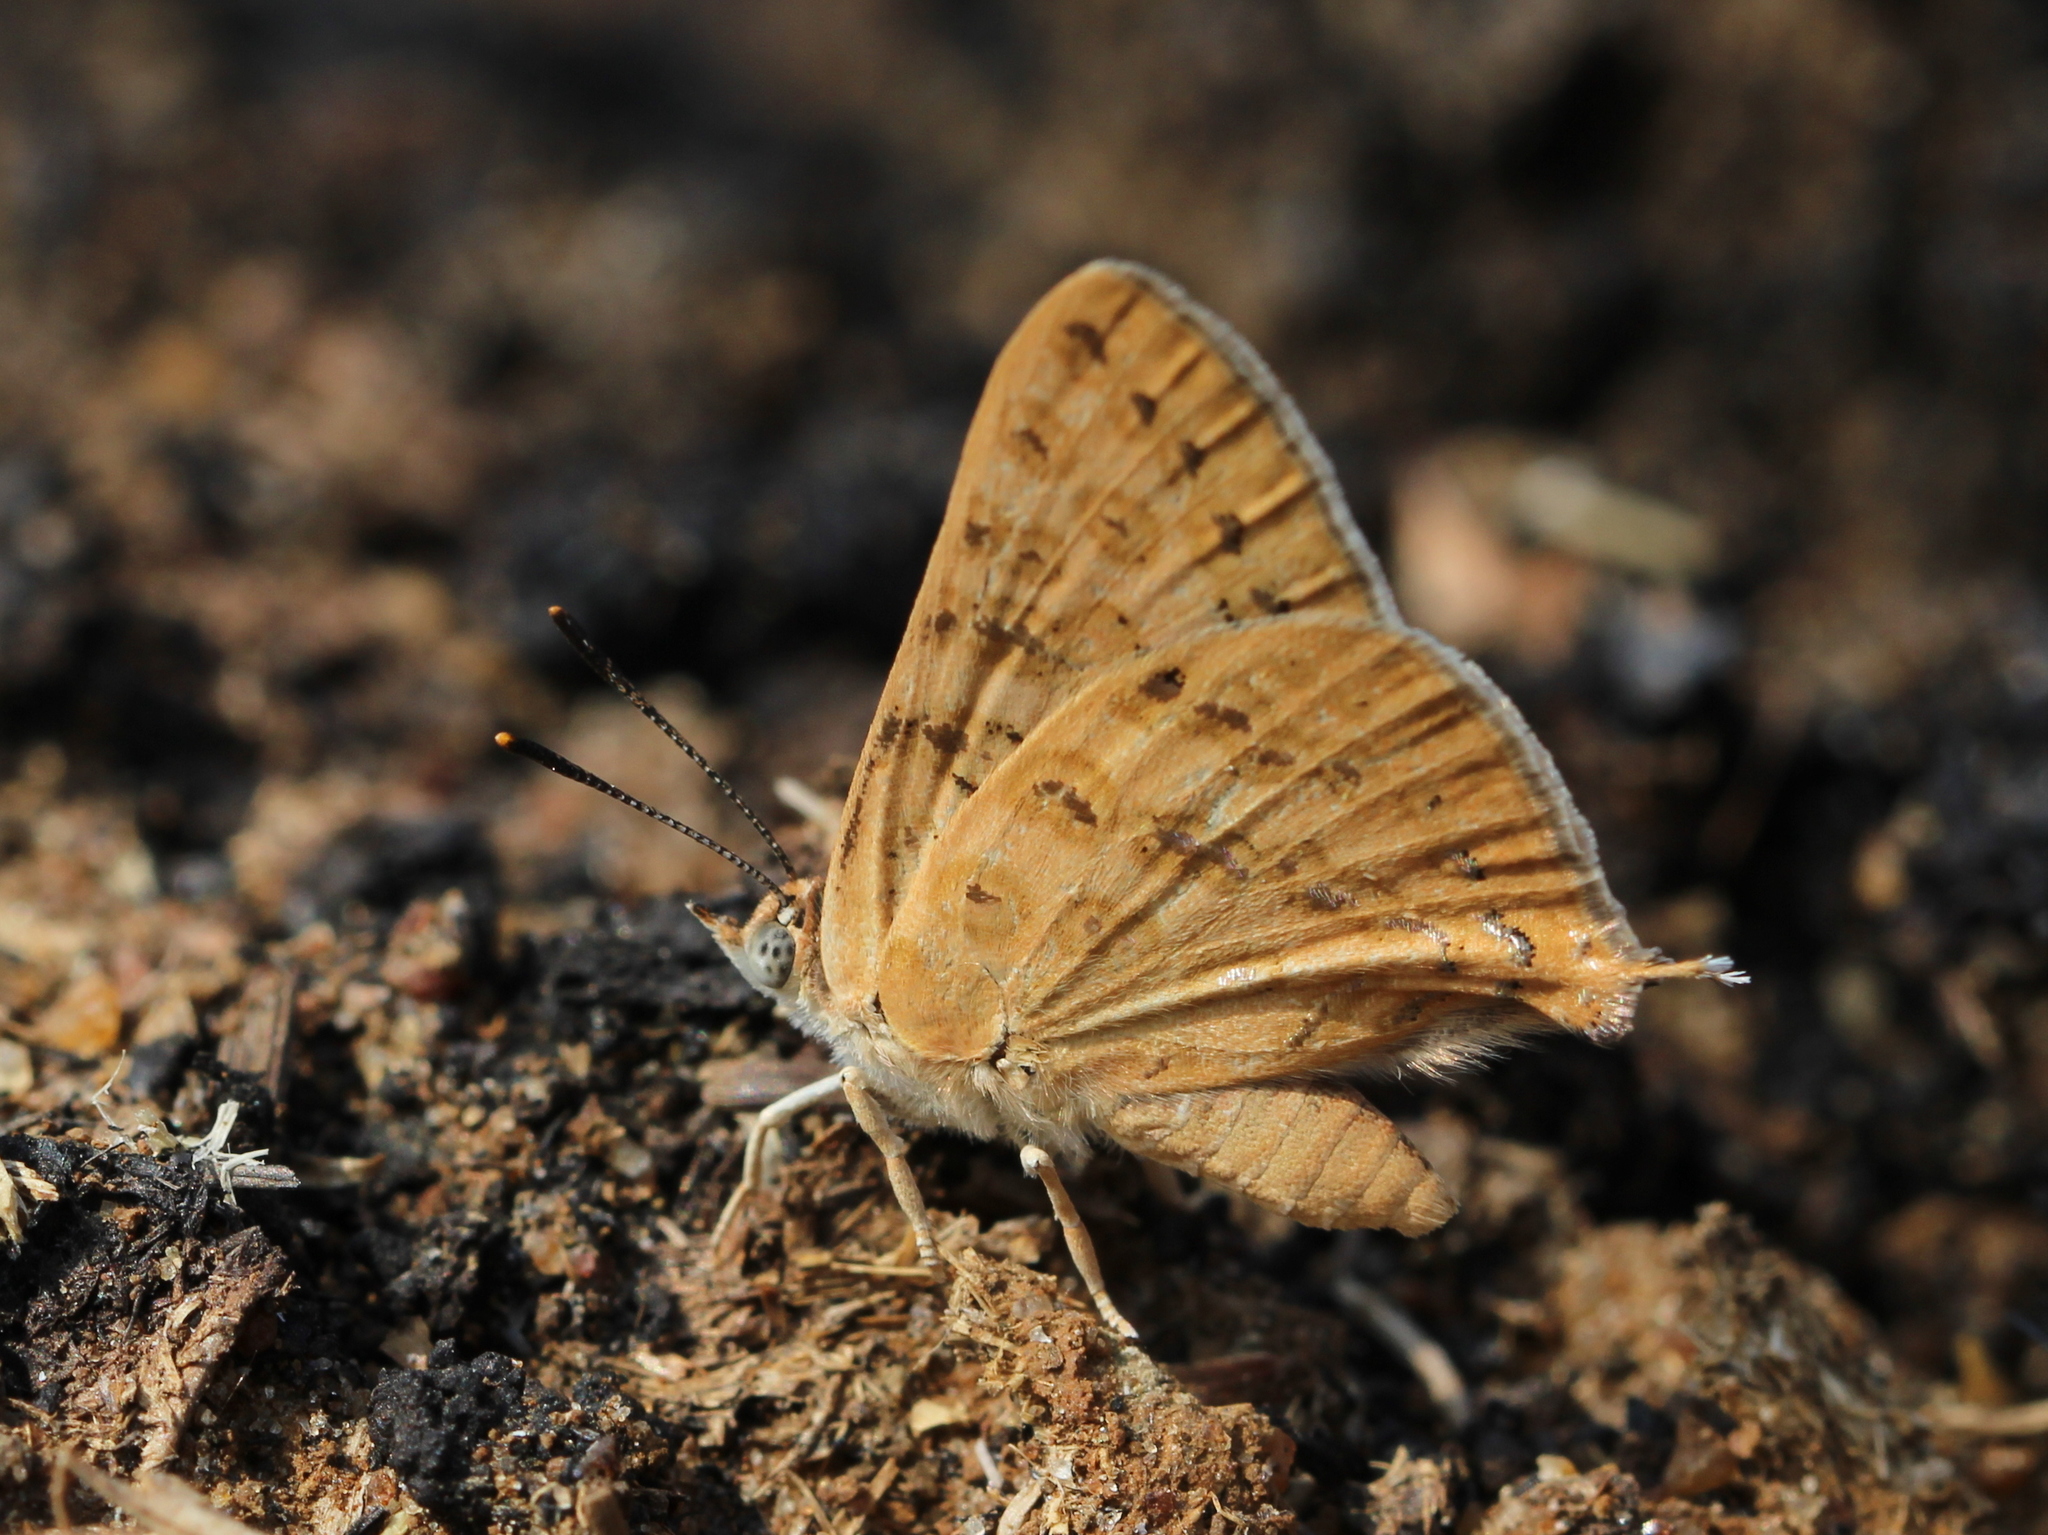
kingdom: Animalia
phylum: Arthropoda
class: Insecta
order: Lepidoptera
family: Lycaenidae
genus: Aphnaeus
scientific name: Aphnaeus lilacinus
